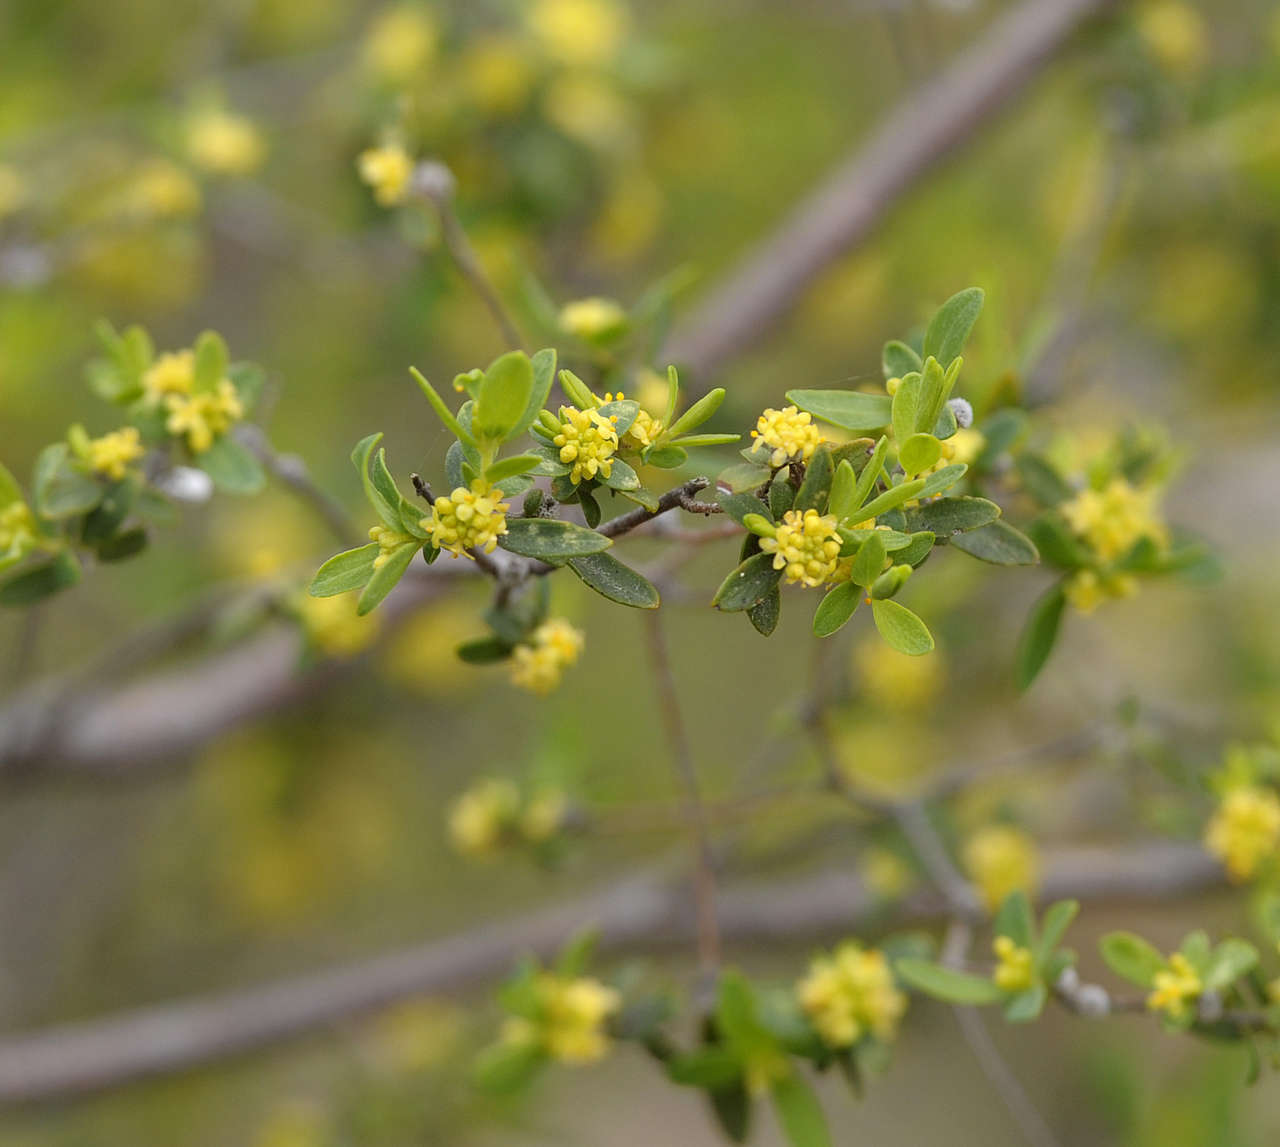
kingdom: Plantae
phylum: Tracheophyta
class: Magnoliopsida
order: Malvales
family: Thymelaeaceae
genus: Pimelea
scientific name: Pimelea hewardiana
